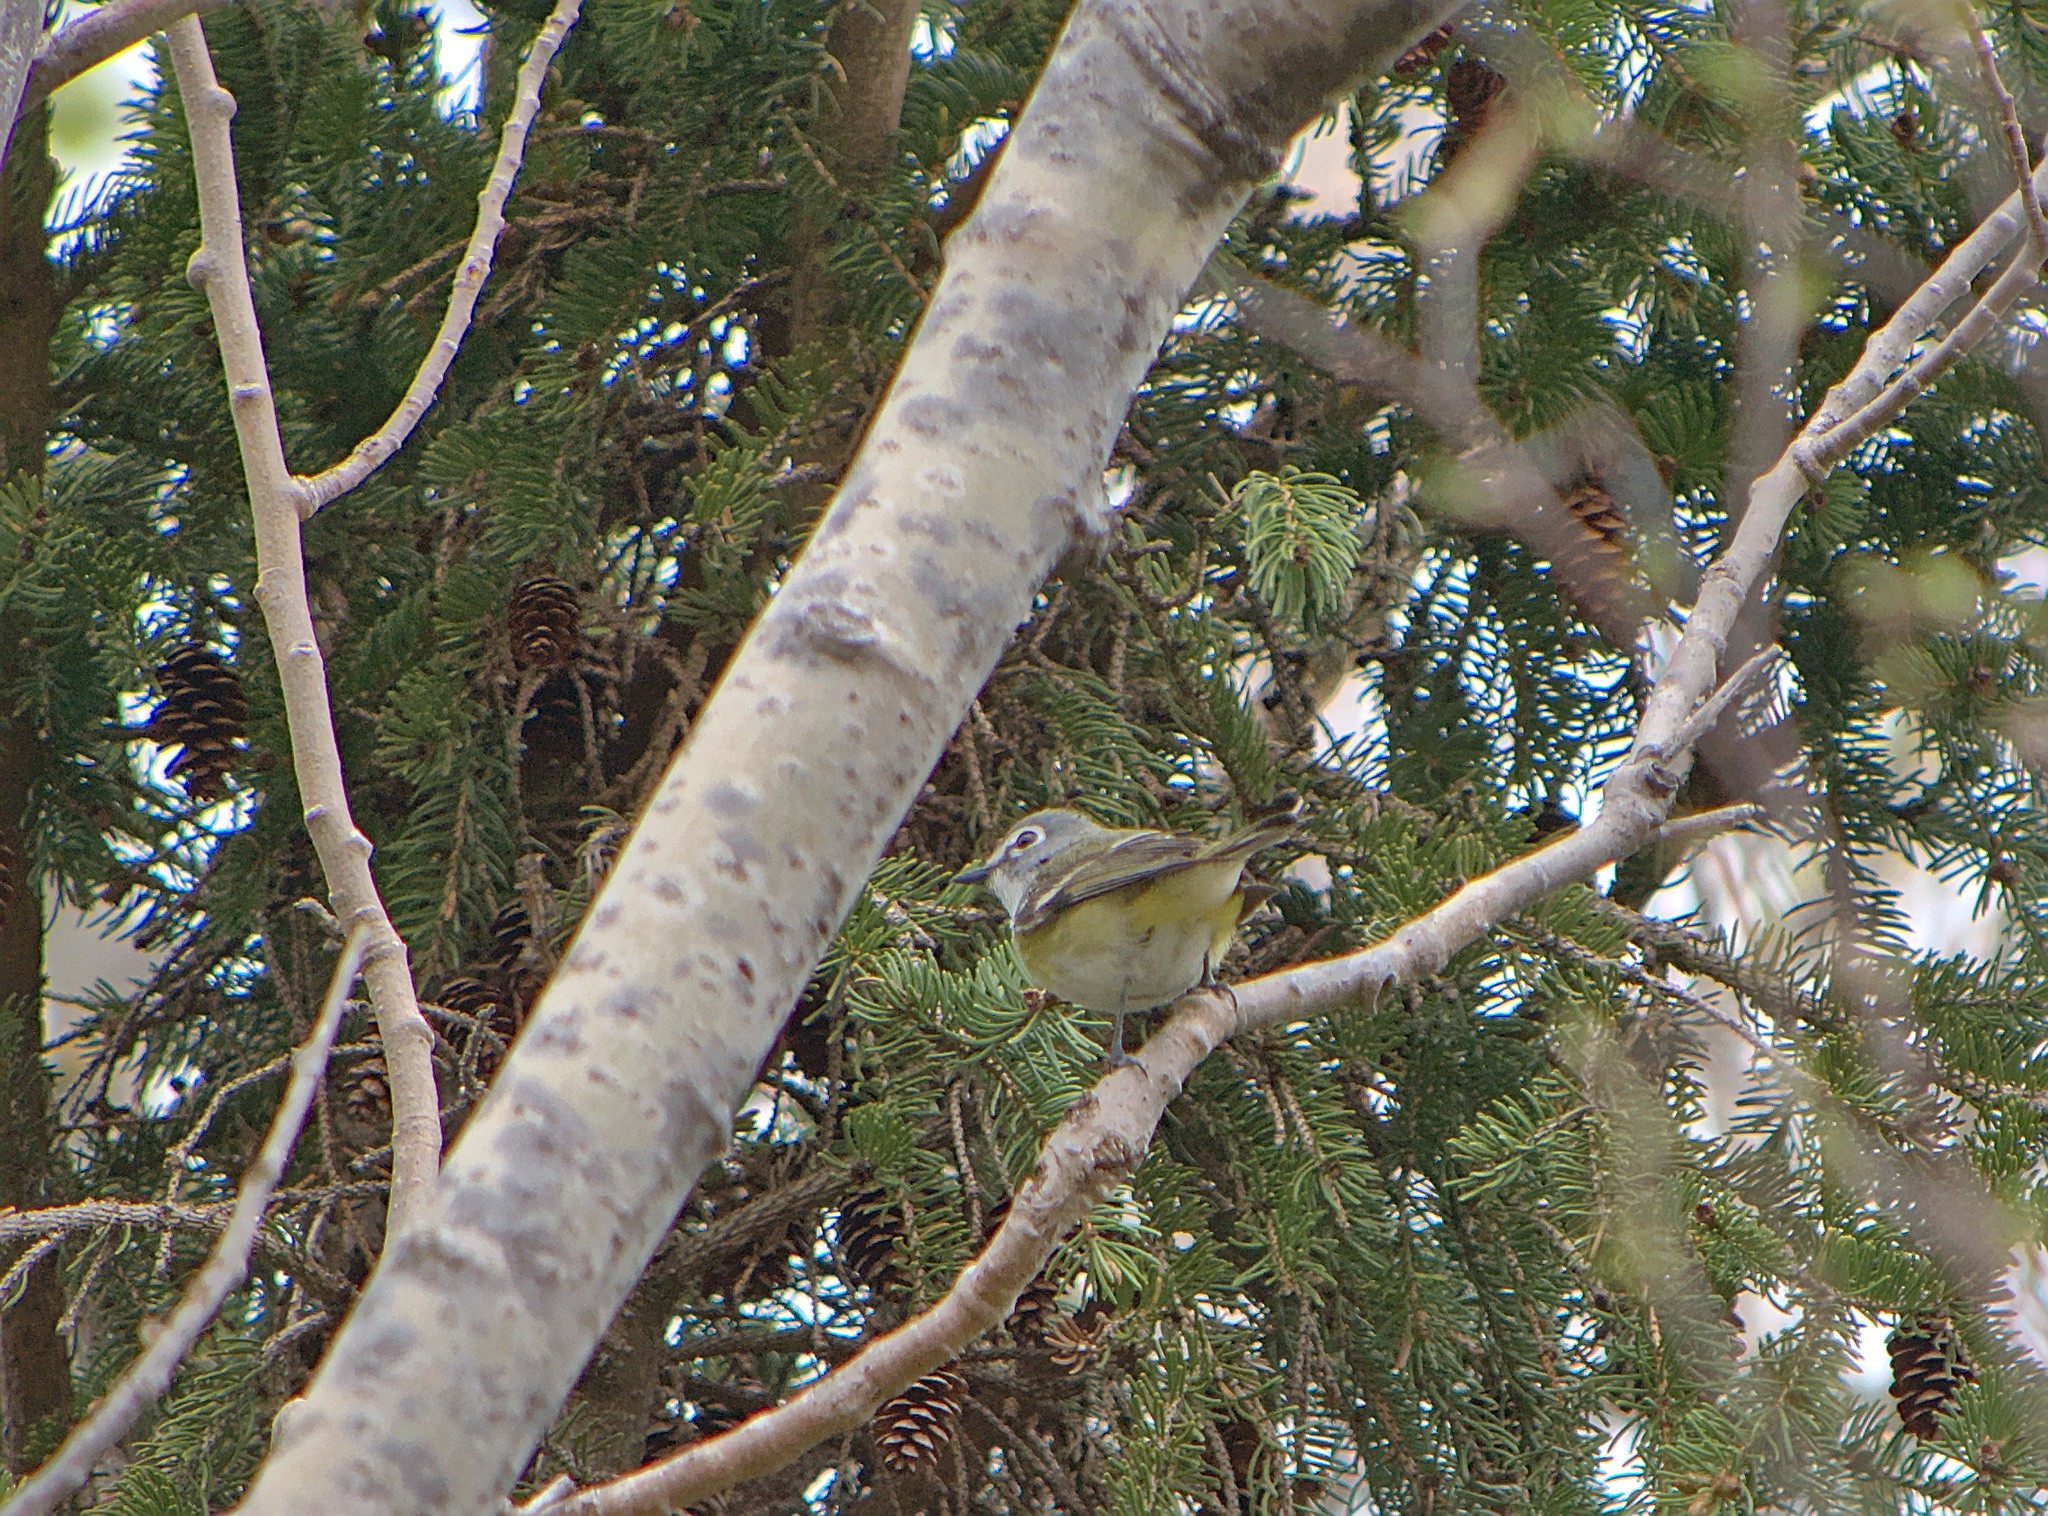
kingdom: Animalia
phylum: Chordata
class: Aves
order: Passeriformes
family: Vireonidae
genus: Vireo
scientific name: Vireo solitarius
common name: Blue-headed vireo
